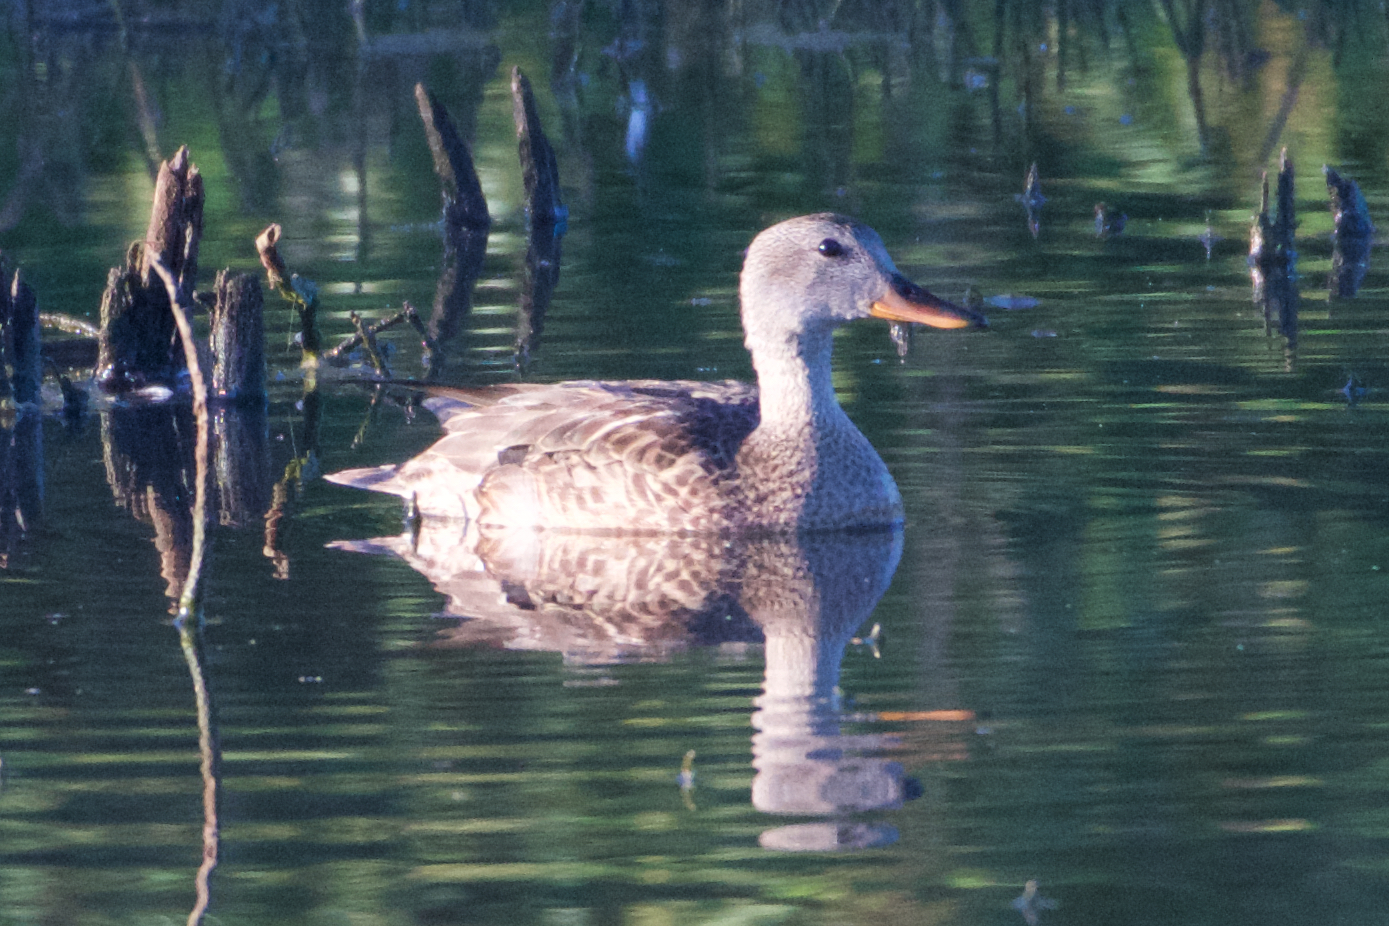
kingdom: Animalia
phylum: Chordata
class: Aves
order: Anseriformes
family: Anatidae
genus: Mareca
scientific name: Mareca strepera
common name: Gadwall
